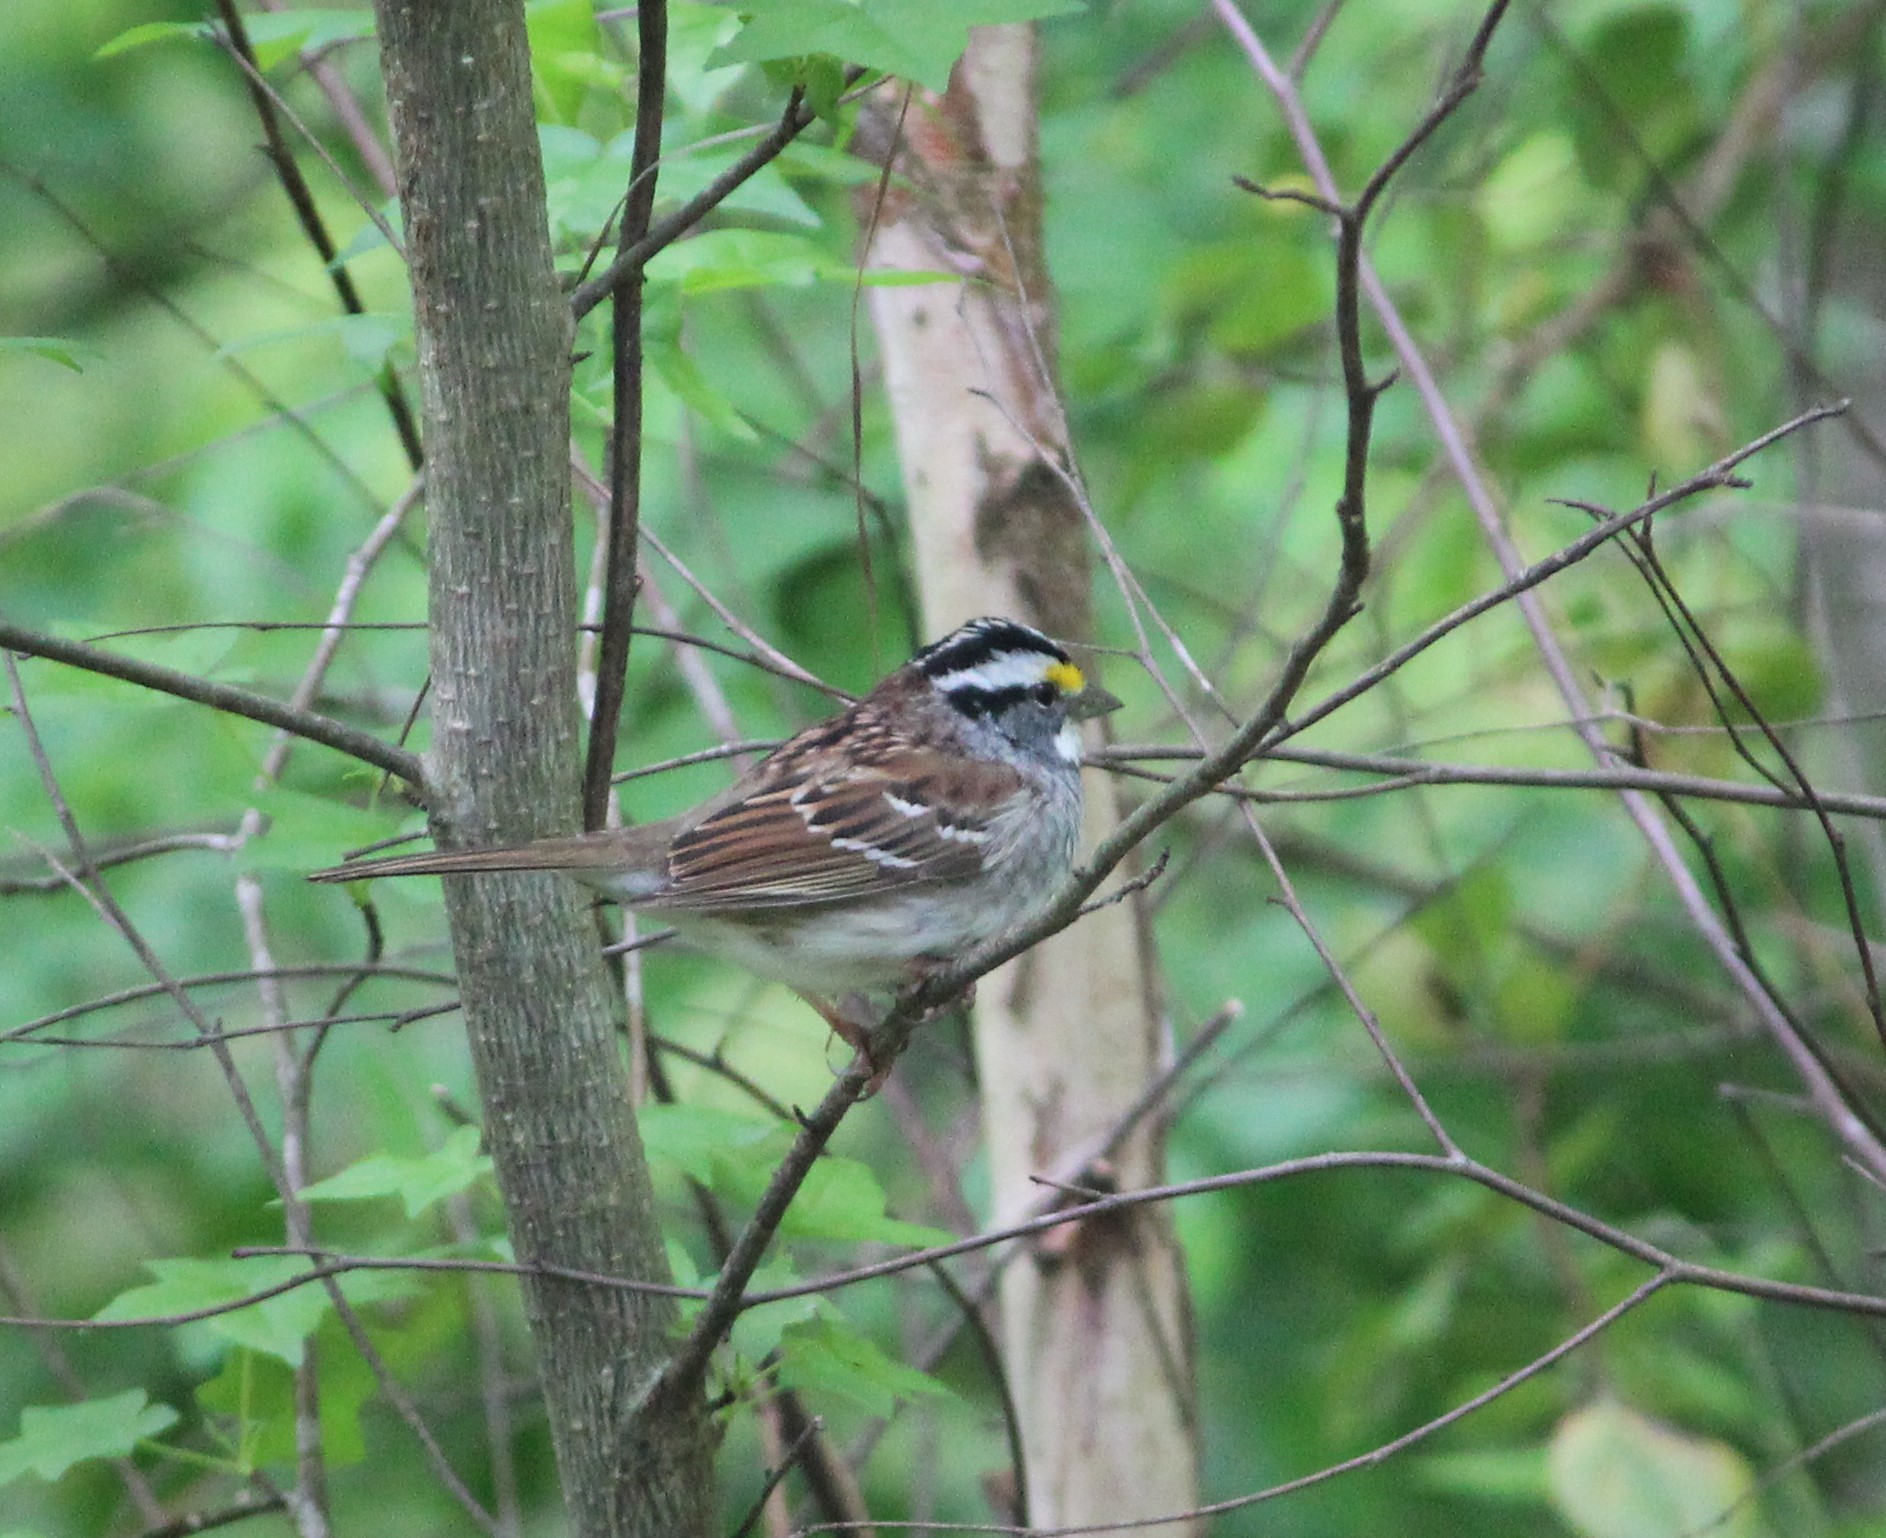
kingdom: Animalia
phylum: Chordata
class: Aves
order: Passeriformes
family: Passerellidae
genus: Zonotrichia
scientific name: Zonotrichia albicollis
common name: White-throated sparrow
